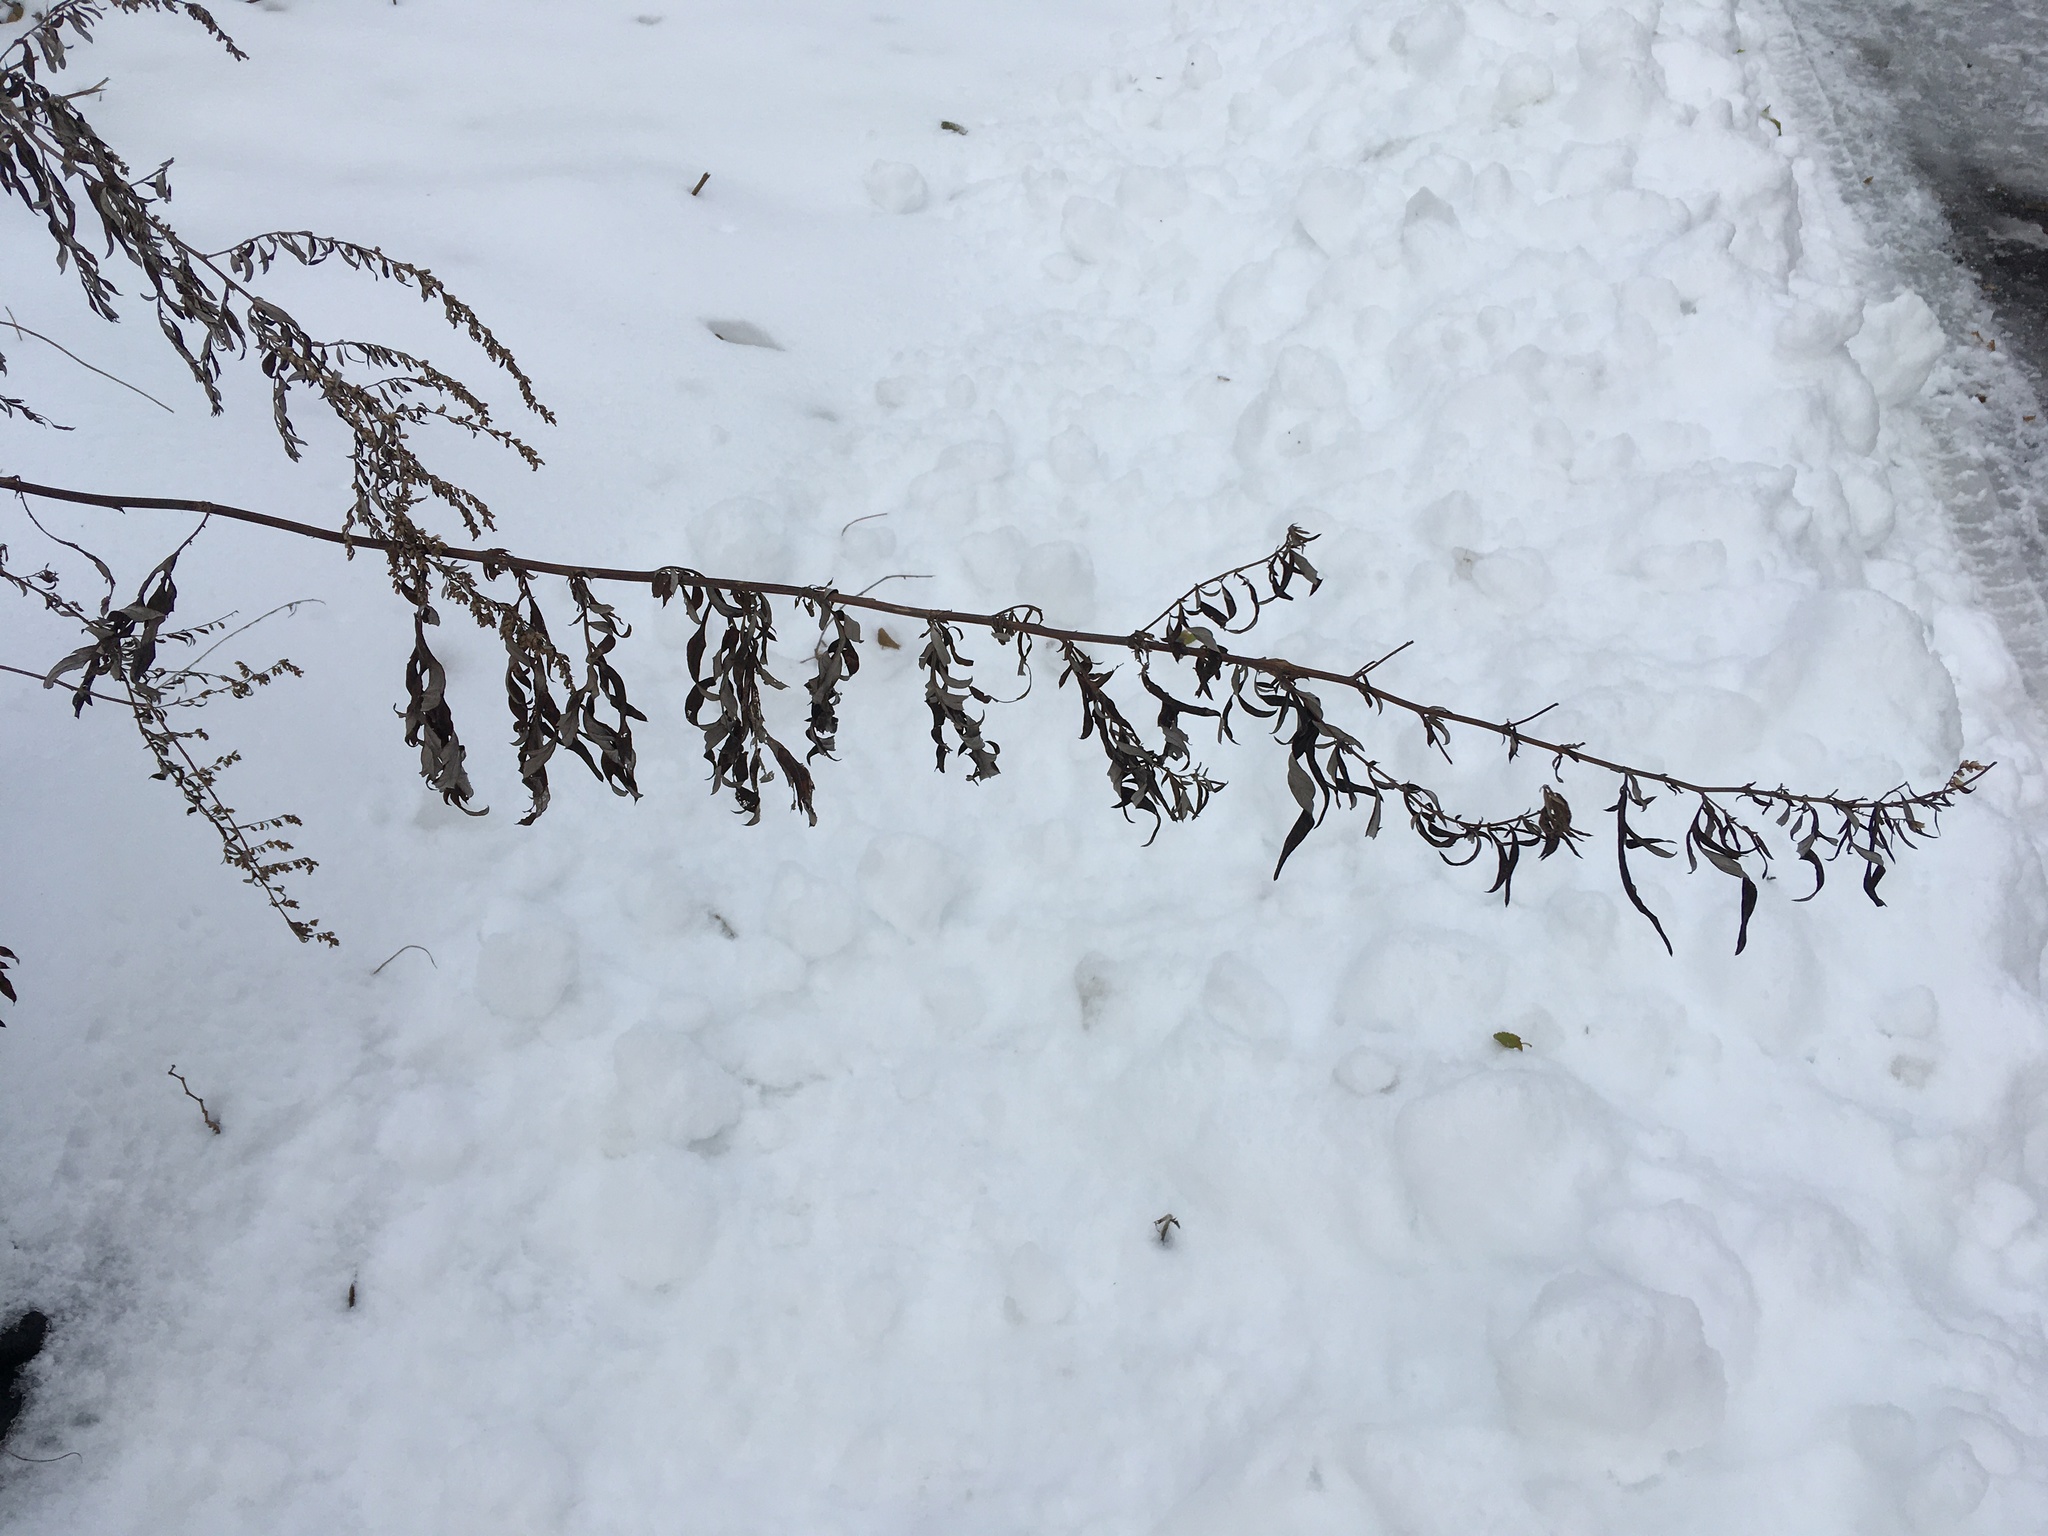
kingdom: Plantae
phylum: Tracheophyta
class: Magnoliopsida
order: Asterales
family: Asteraceae
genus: Artemisia
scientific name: Artemisia vulgaris
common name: Mugwort
